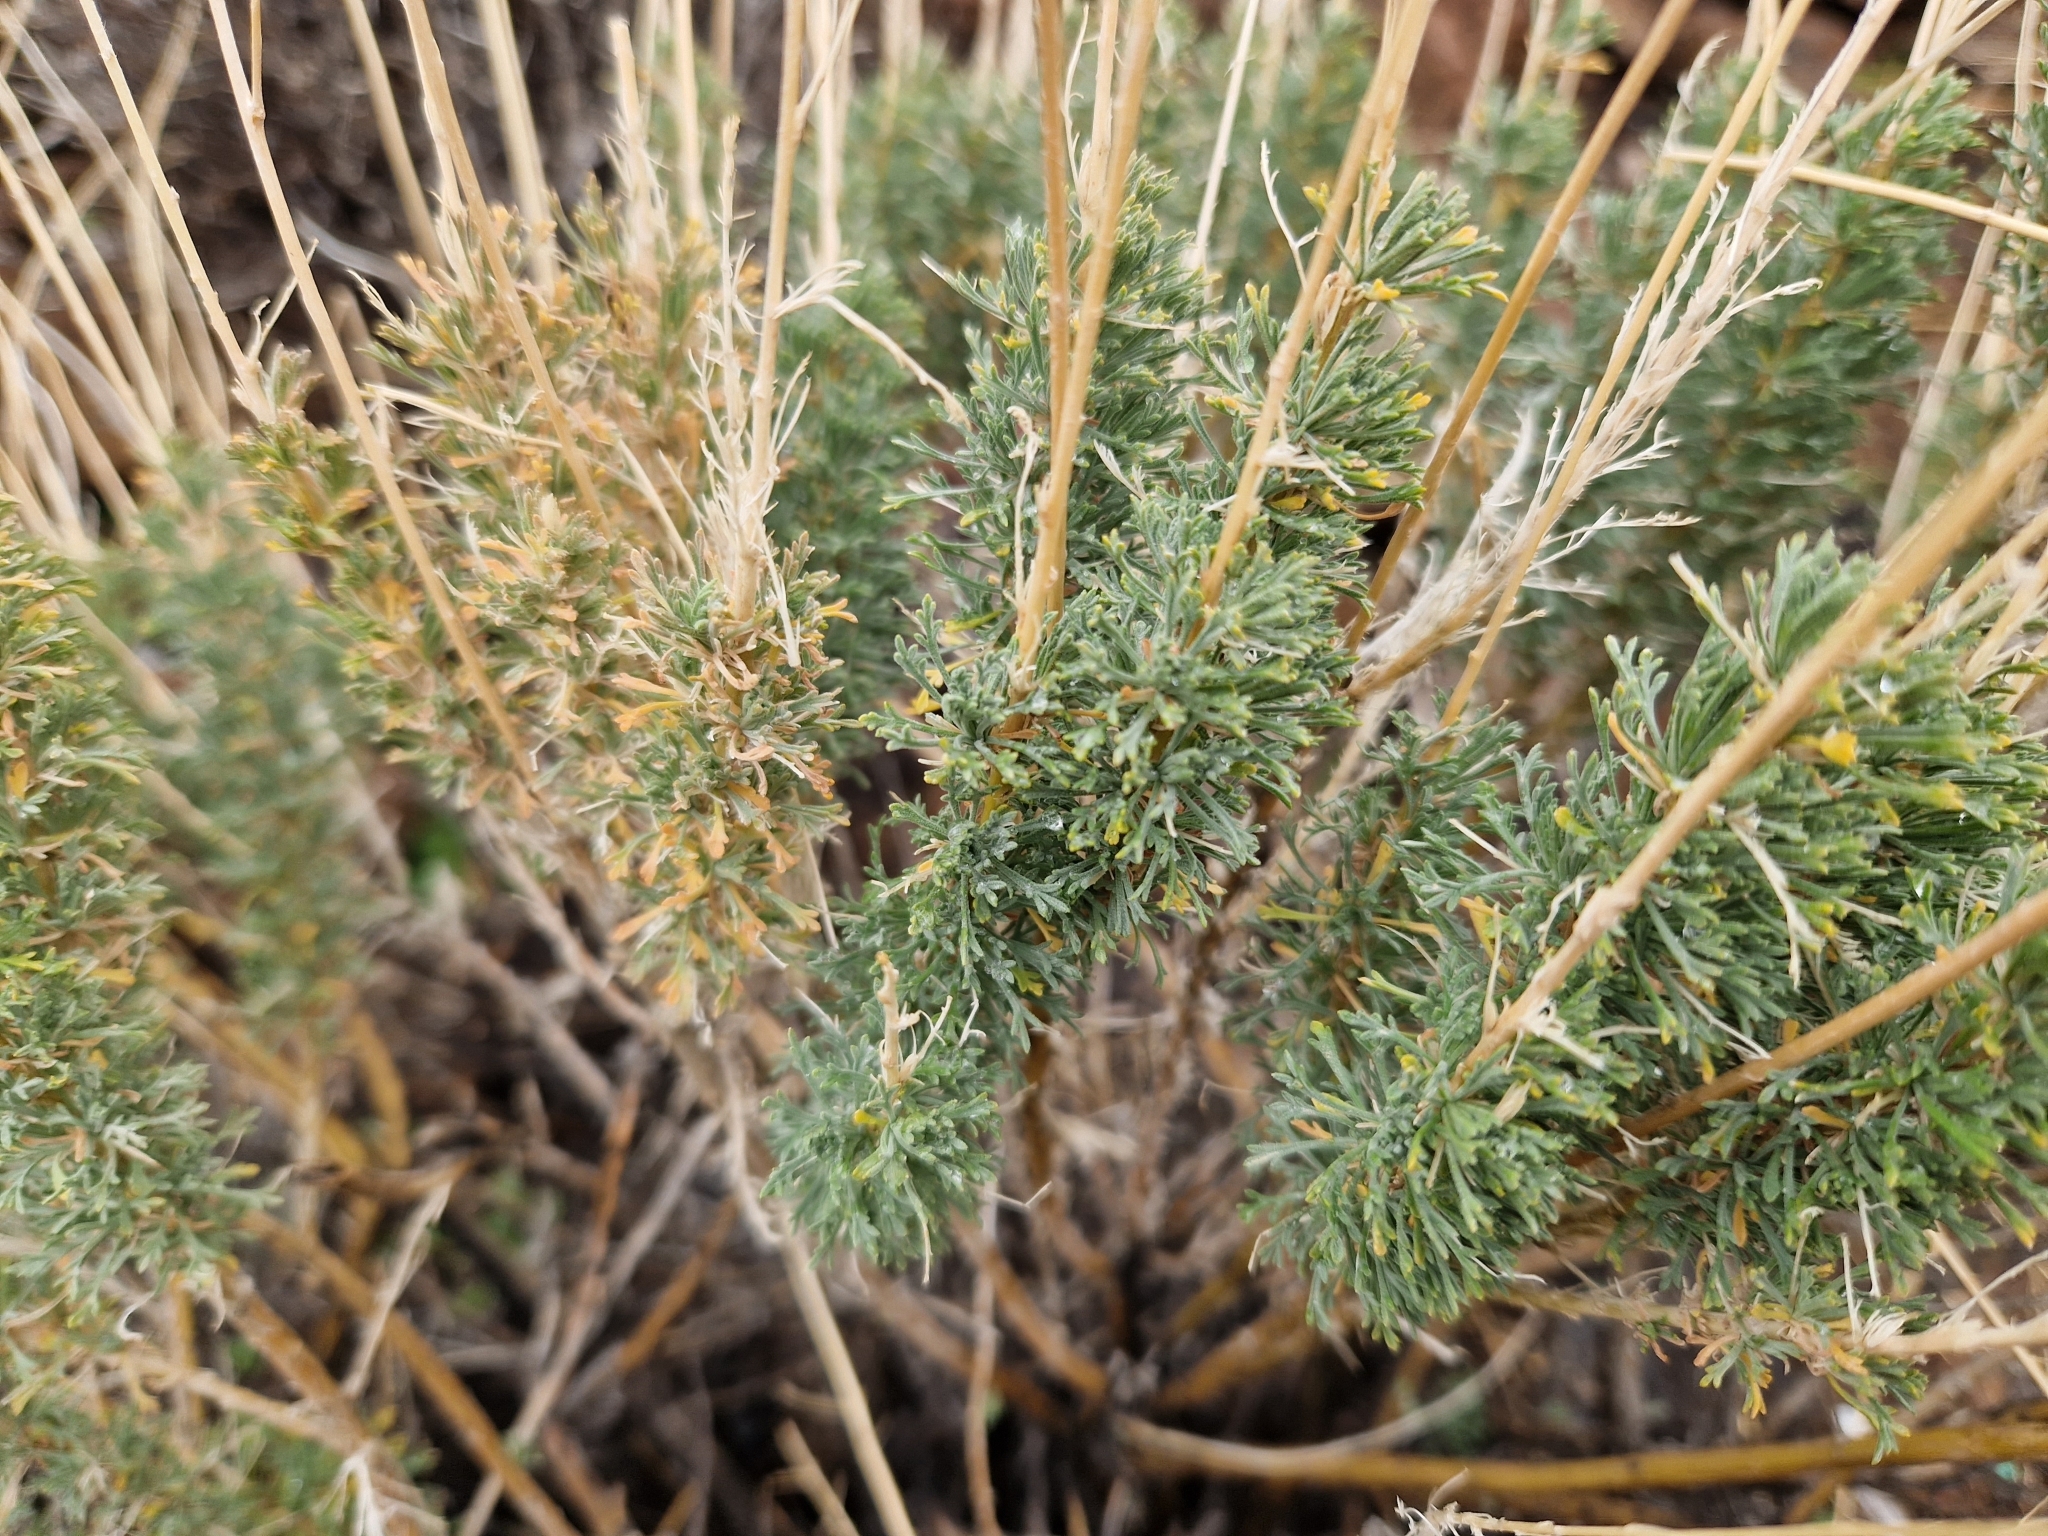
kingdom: Plantae
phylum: Tracheophyta
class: Magnoliopsida
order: Brassicales
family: Brassicaceae
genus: Descurainia
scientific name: Descurainia bourgaeana
